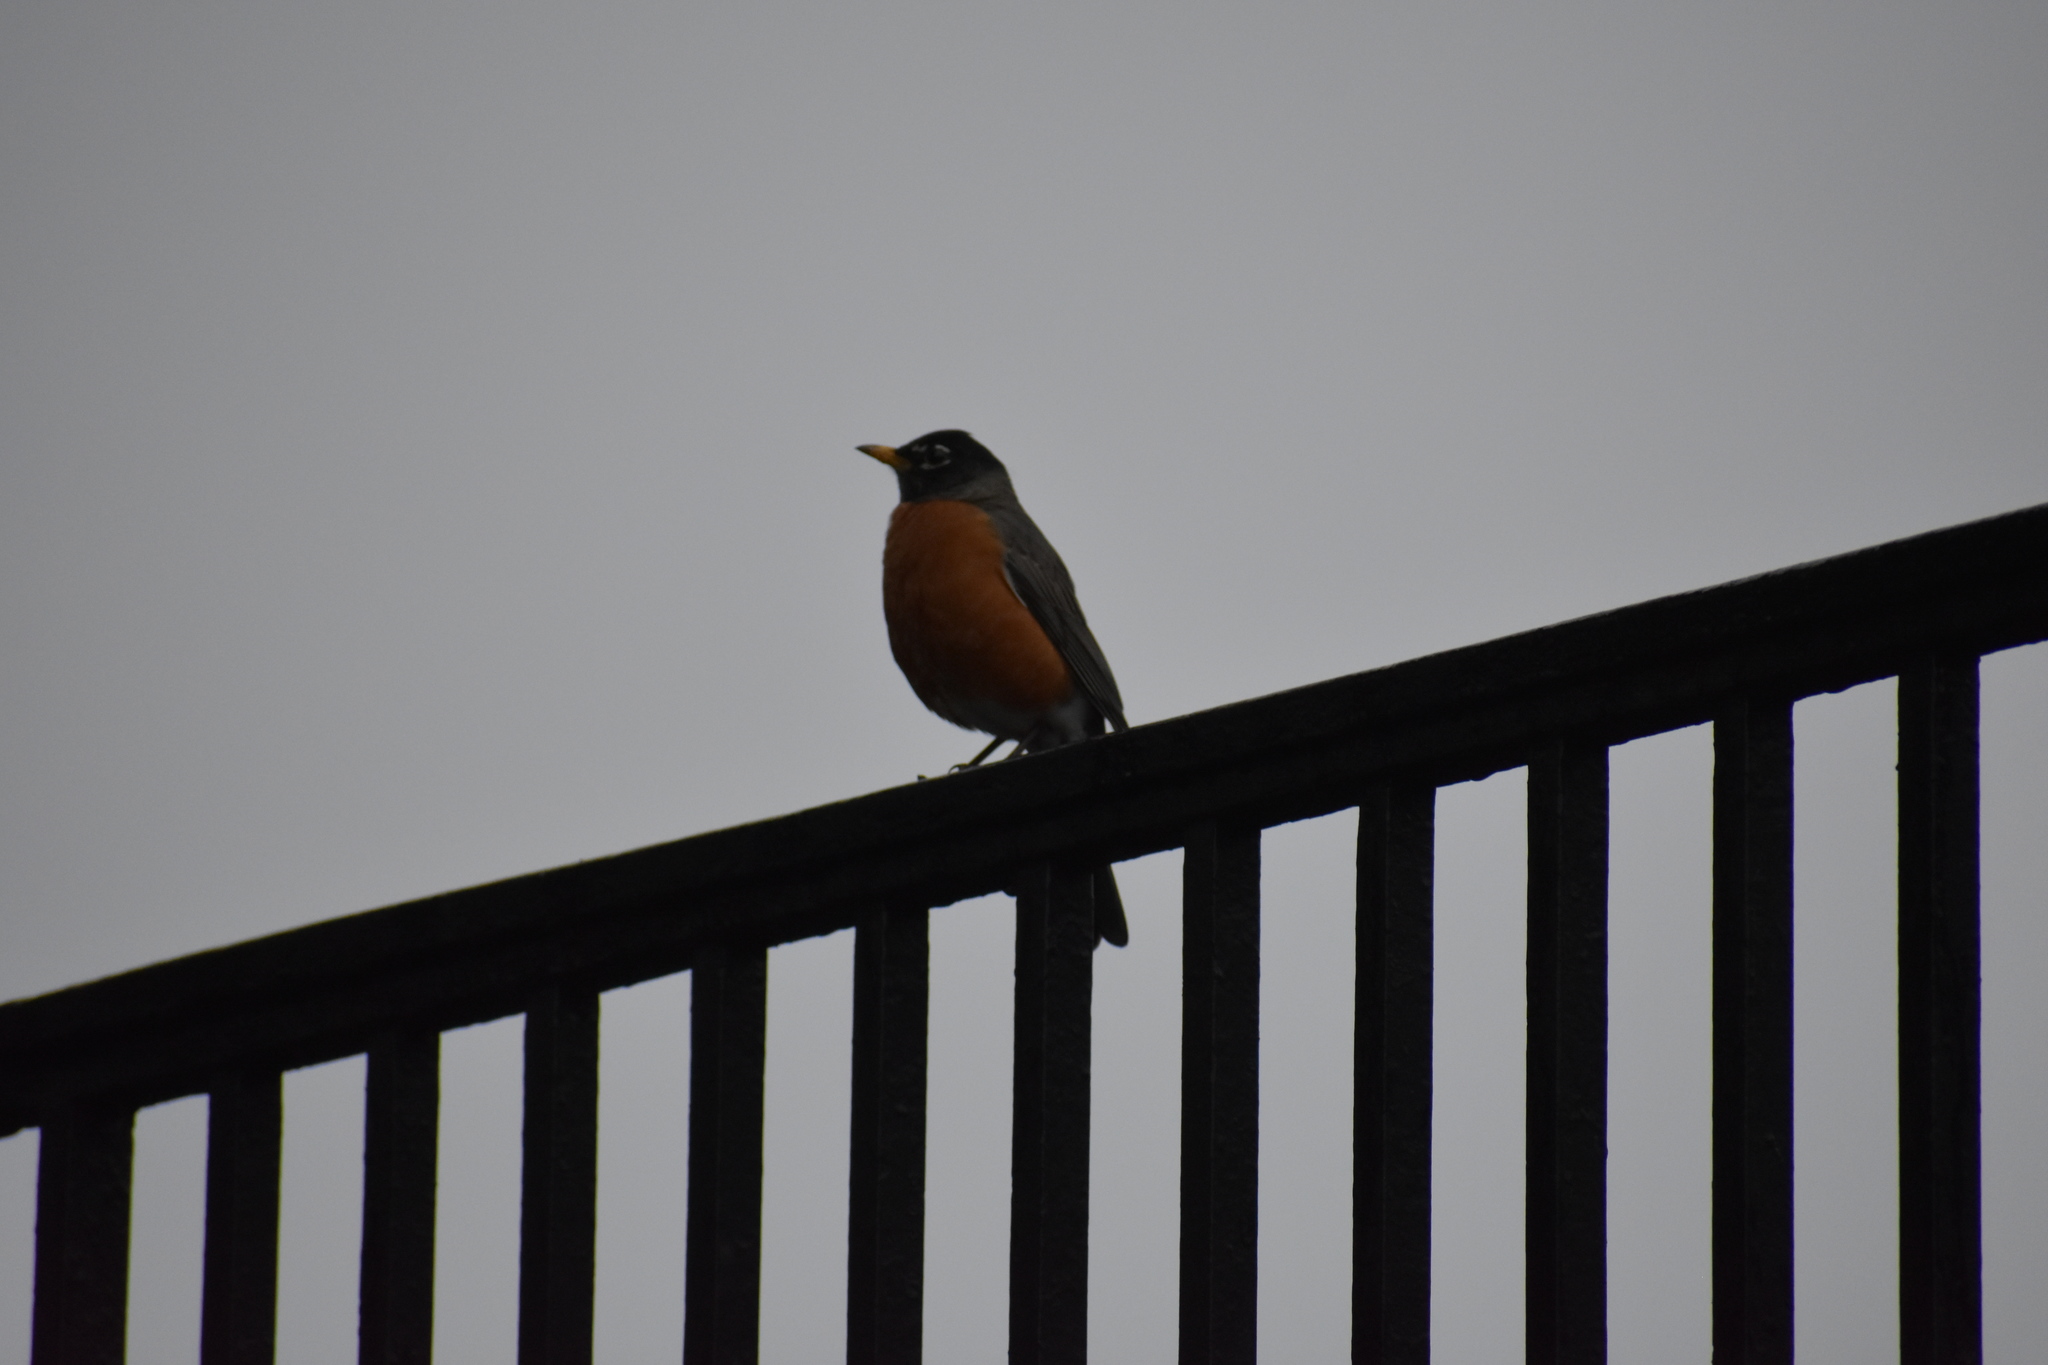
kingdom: Animalia
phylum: Chordata
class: Aves
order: Passeriformes
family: Turdidae
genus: Turdus
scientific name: Turdus migratorius
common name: American robin
